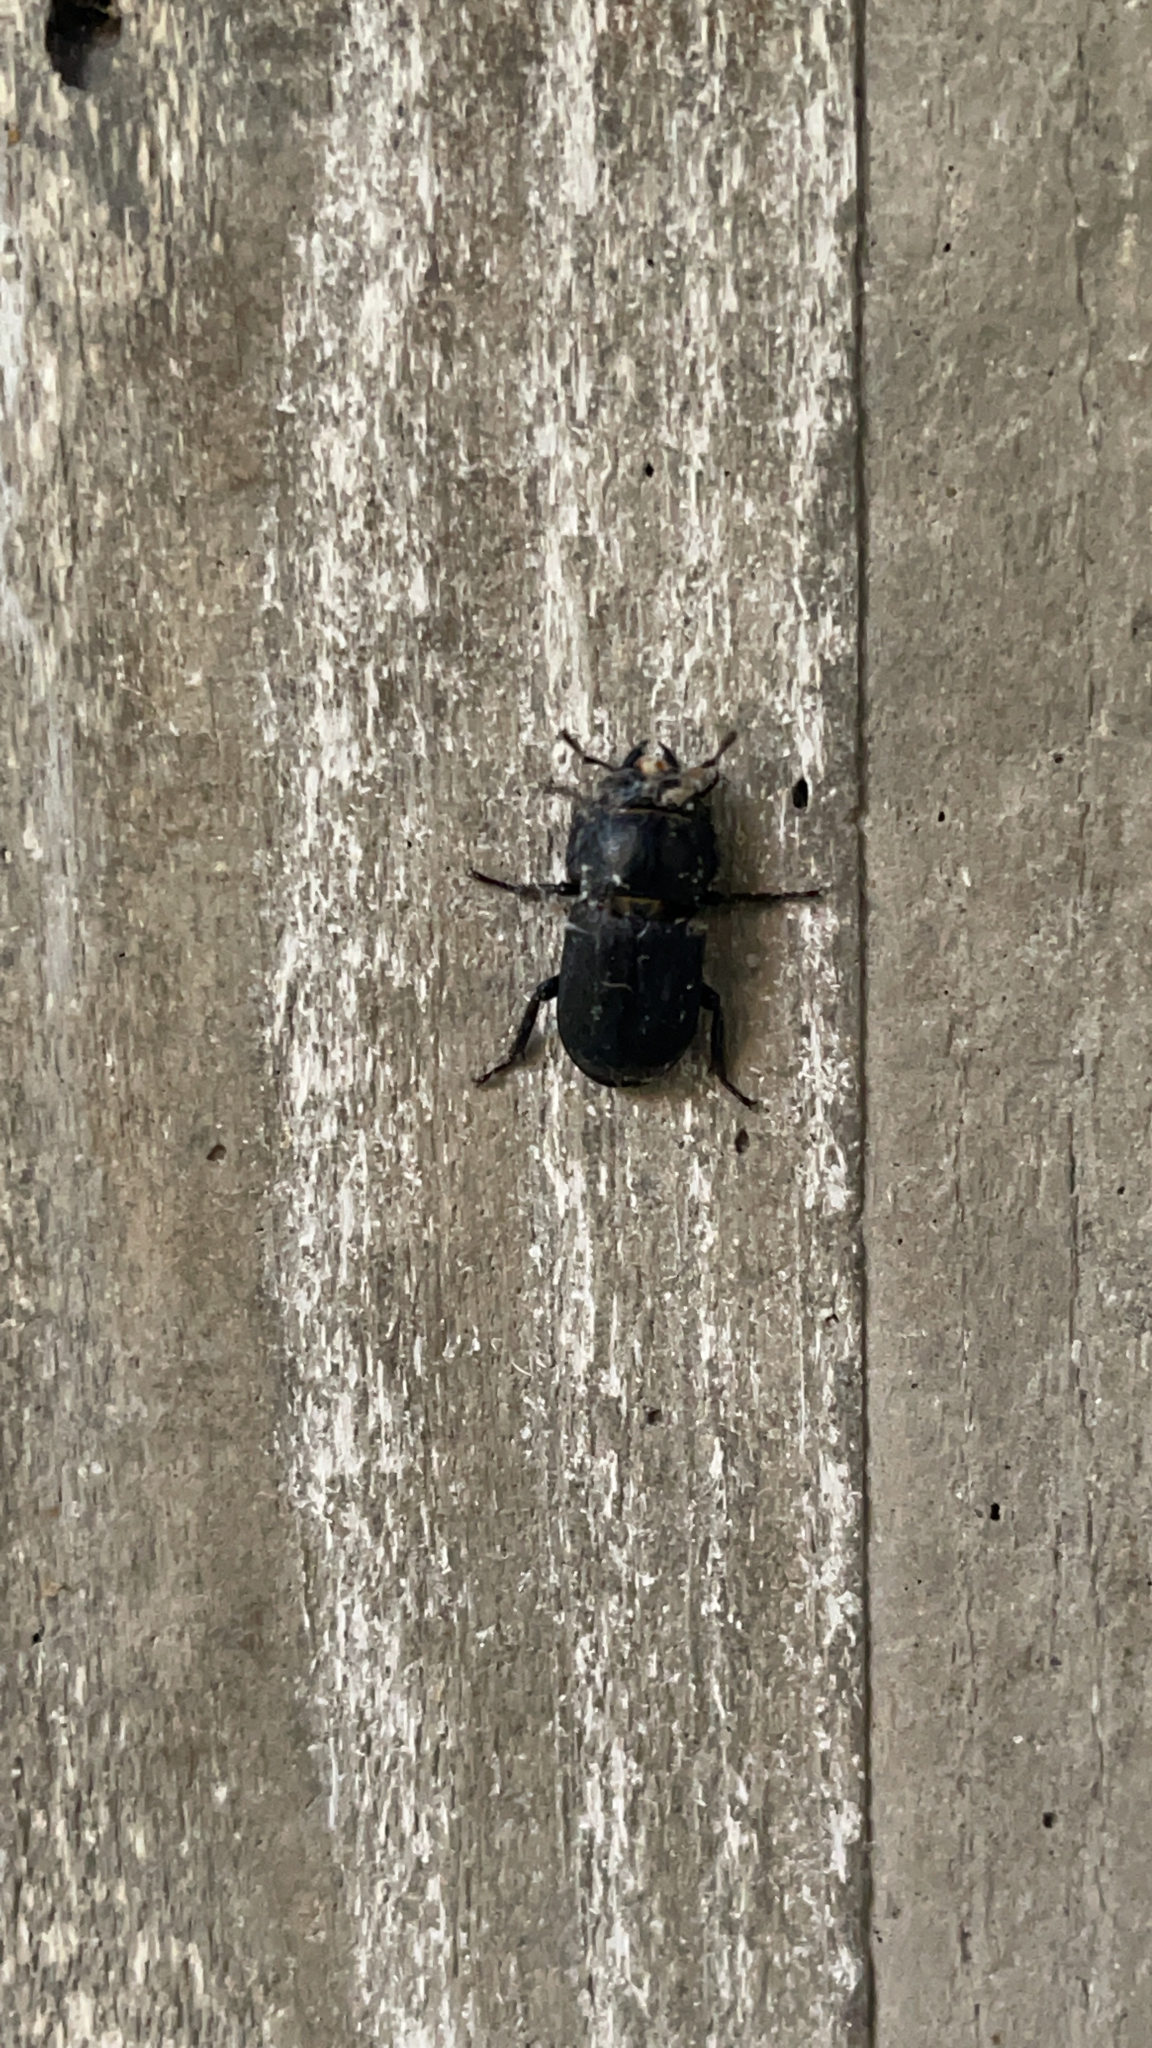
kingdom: Animalia
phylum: Arthropoda
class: Insecta
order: Coleoptera
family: Lucanidae
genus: Dorcus
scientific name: Dorcus parallelipipedus
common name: Lesser stag beetle
